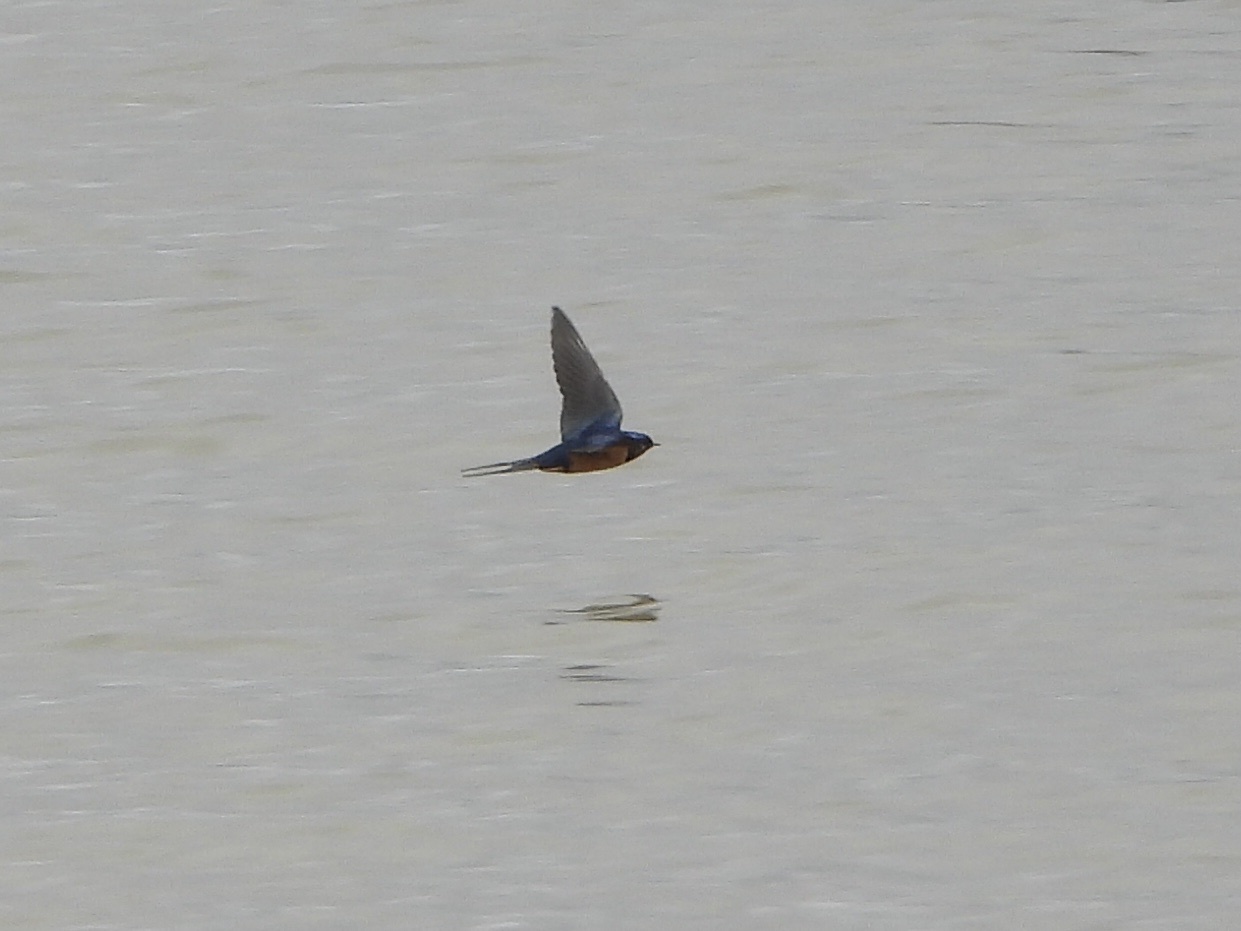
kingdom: Animalia
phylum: Chordata
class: Aves
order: Passeriformes
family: Hirundinidae
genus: Hirundo
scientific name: Hirundo rustica
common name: Barn swallow
